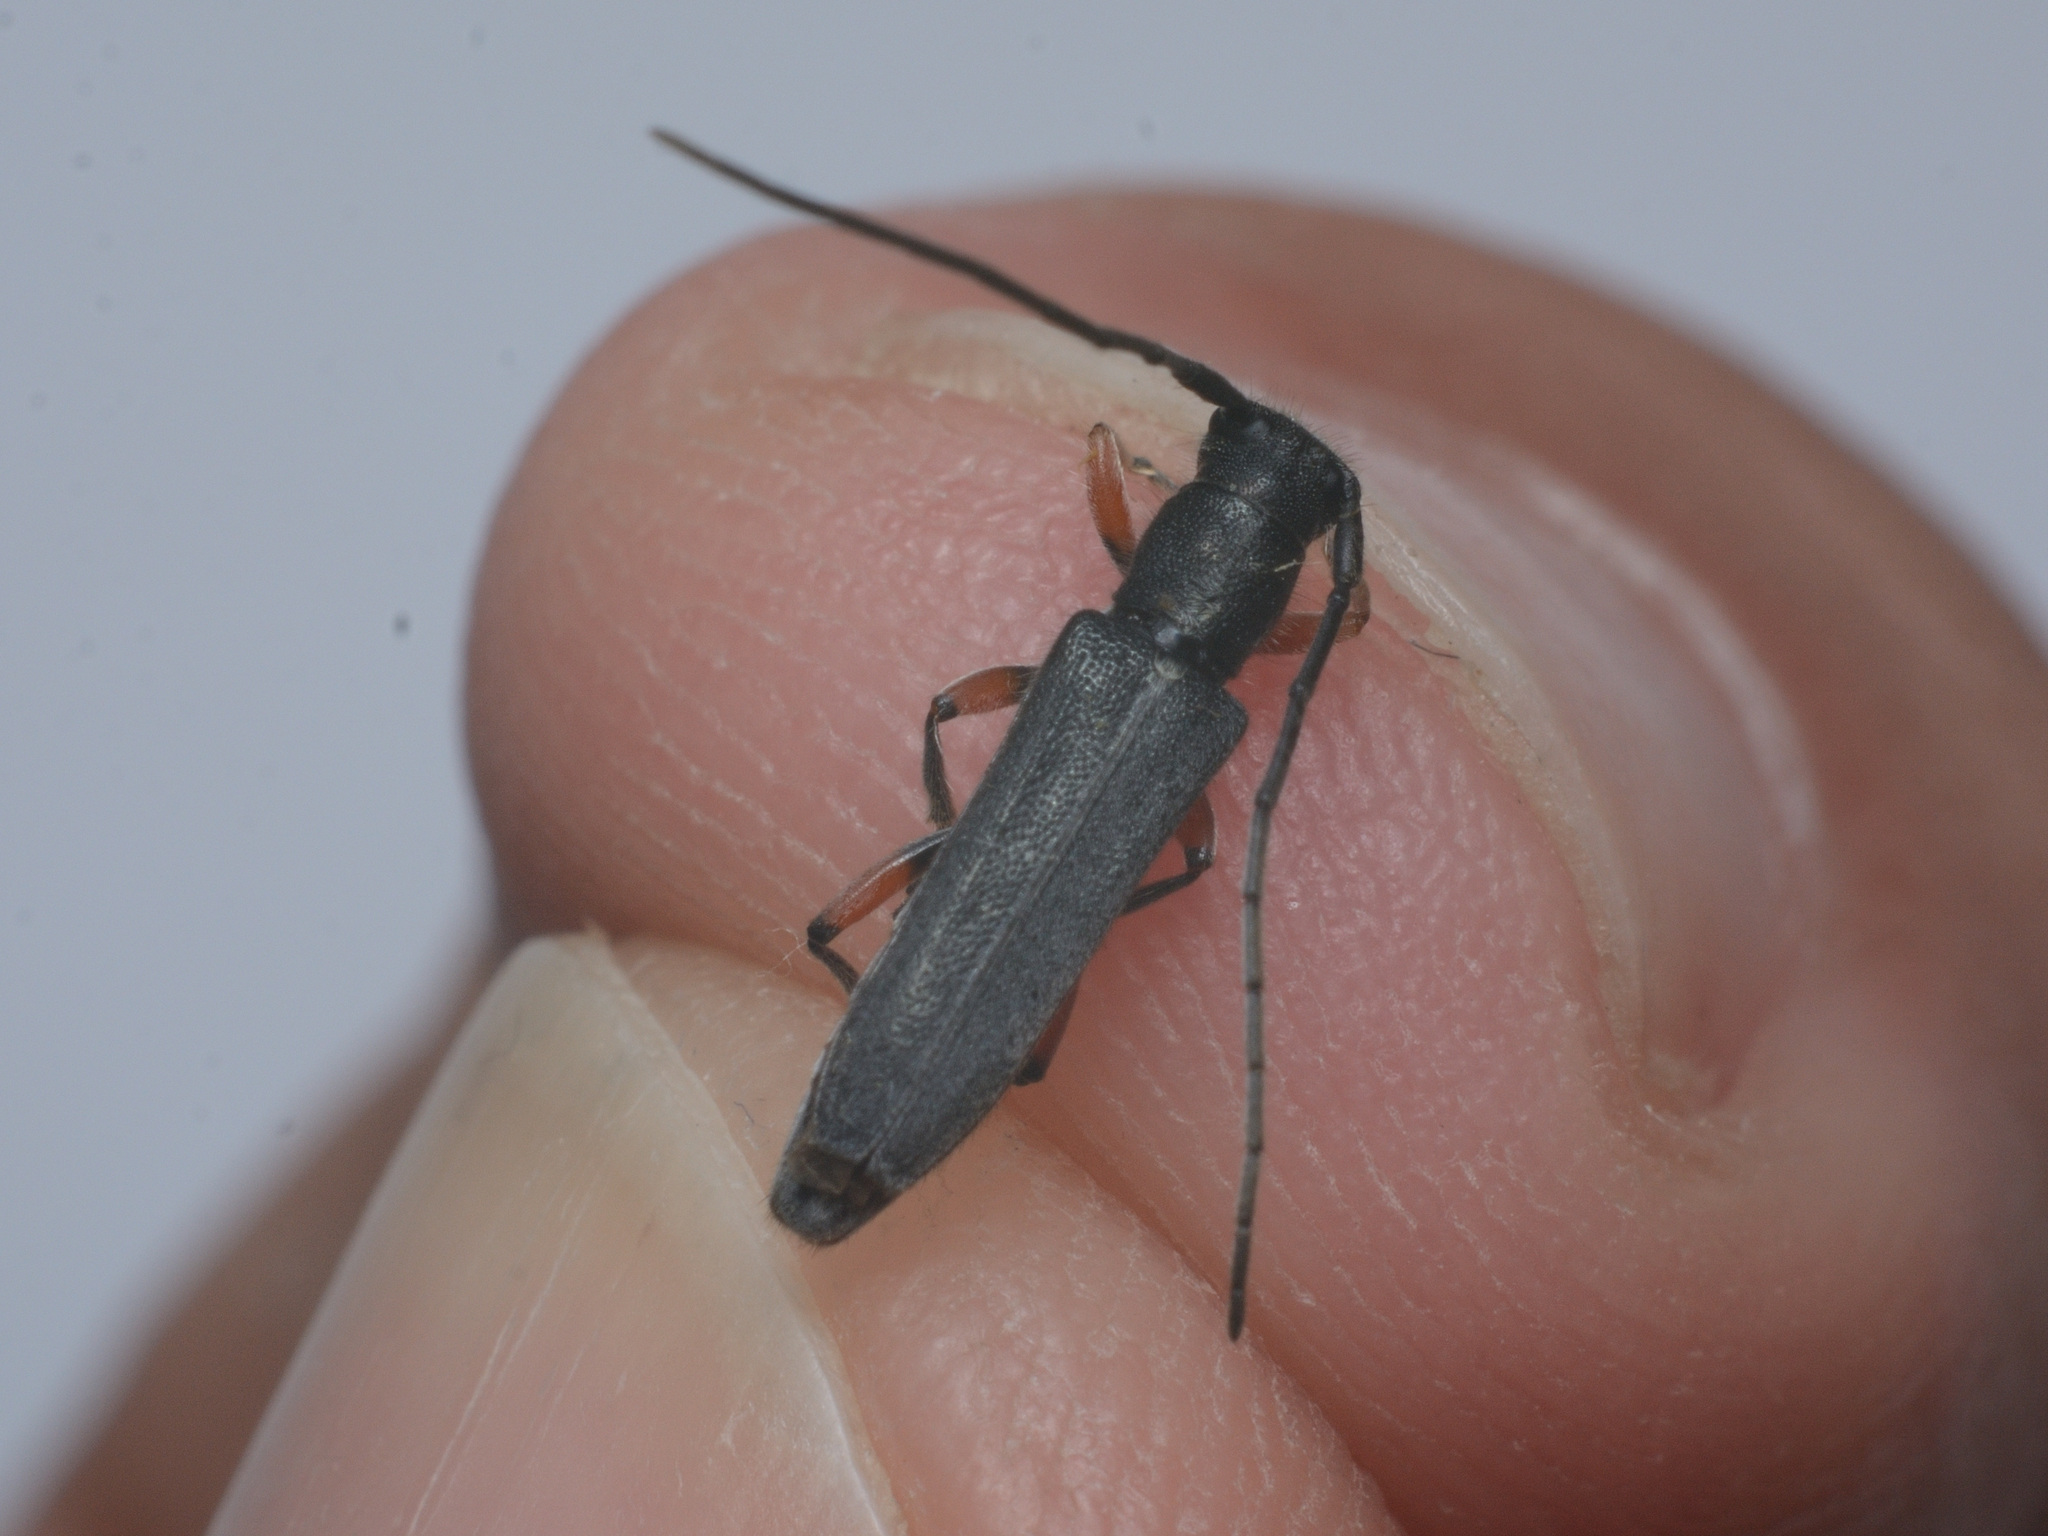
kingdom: Animalia
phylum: Arthropoda
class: Insecta
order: Coleoptera
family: Cerambycidae
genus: Phytoecia
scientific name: Phytoecia icterica
